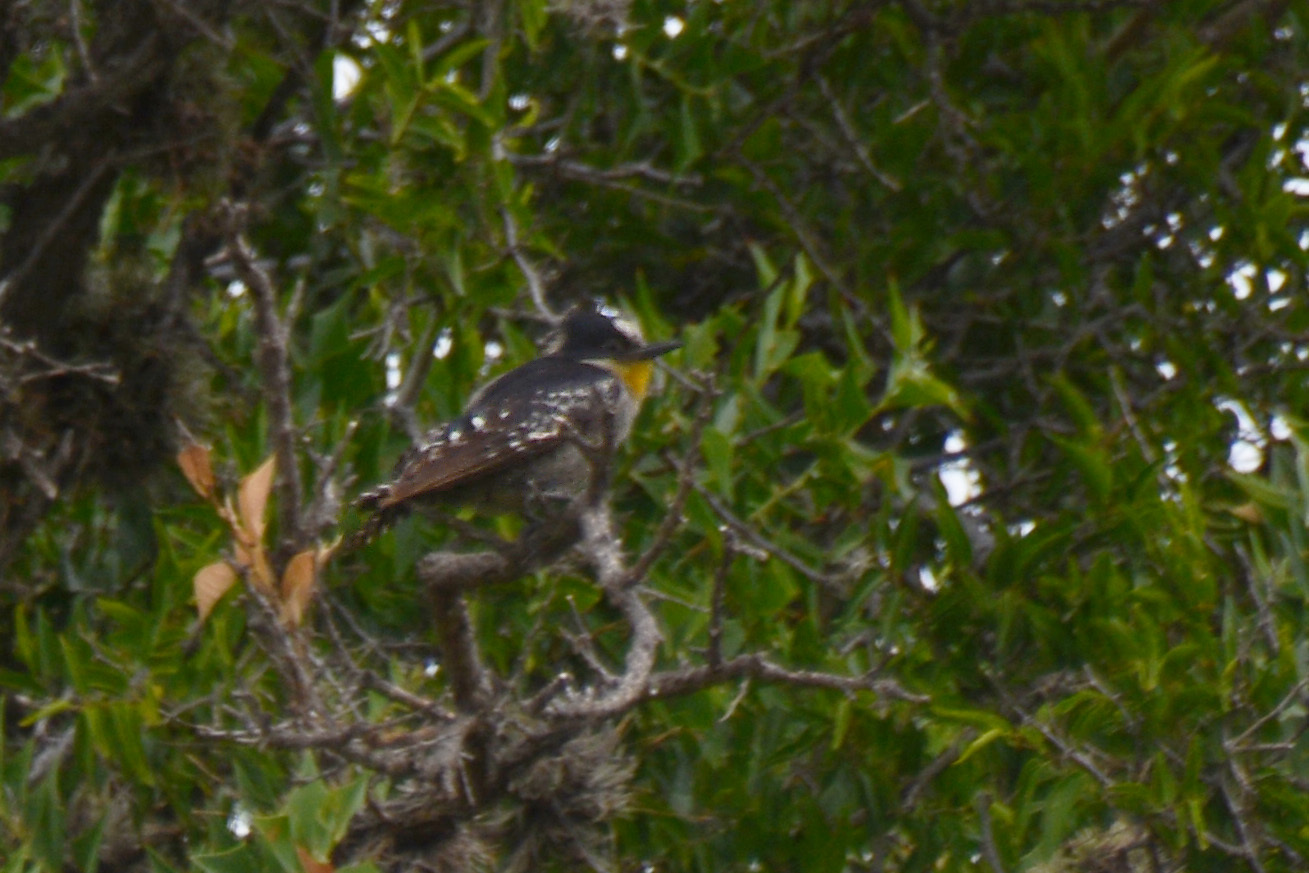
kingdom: Animalia
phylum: Chordata
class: Aves
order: Piciformes
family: Picidae
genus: Melanerpes
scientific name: Melanerpes cactorum
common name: White-fronted woodpecker
